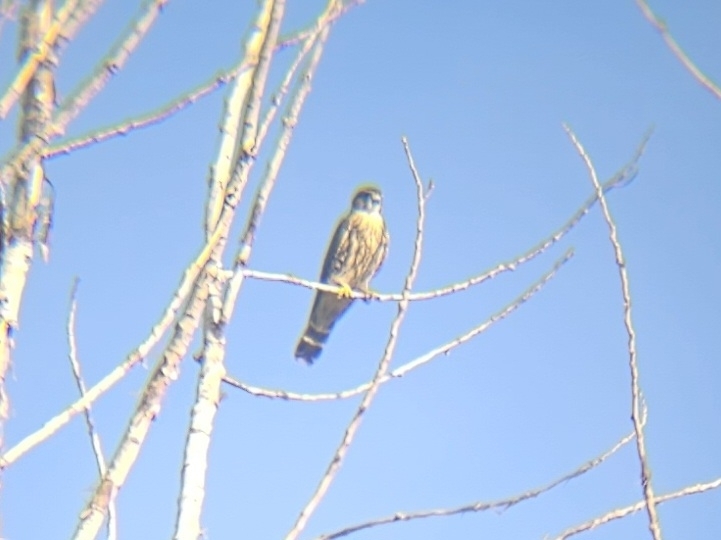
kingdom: Animalia
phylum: Chordata
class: Aves
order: Falconiformes
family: Falconidae
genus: Falco
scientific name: Falco columbarius
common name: Merlin
